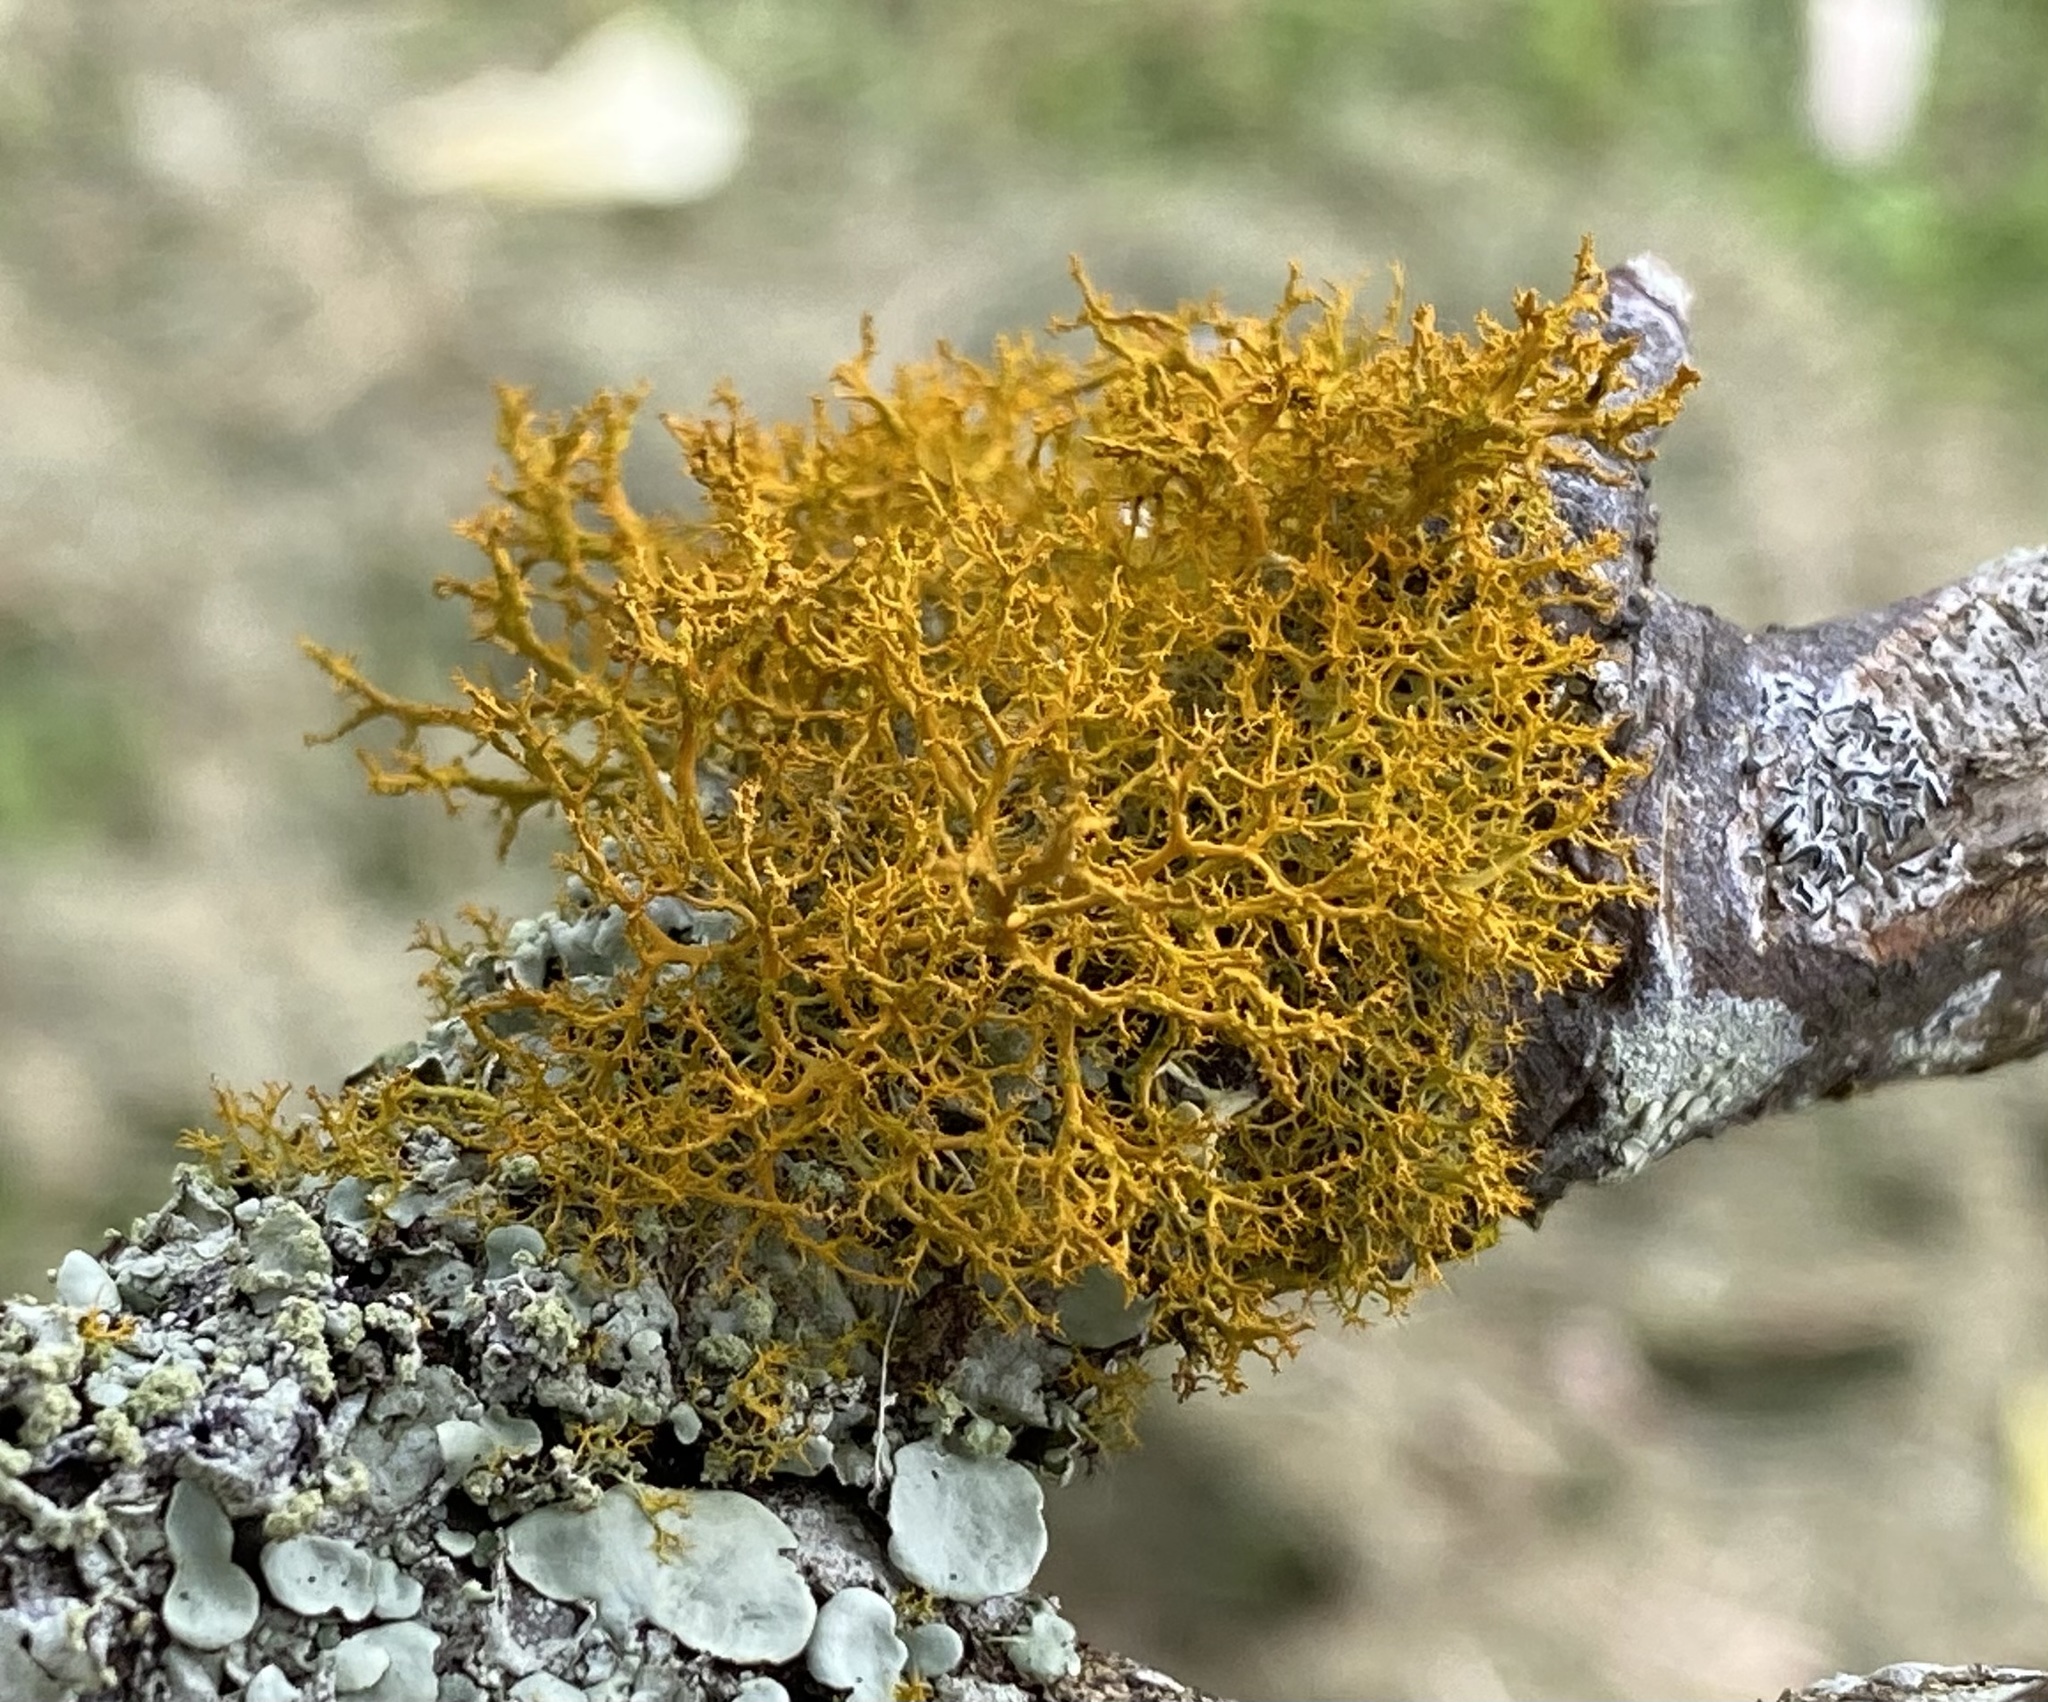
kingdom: Fungi
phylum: Ascomycota
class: Lecanoromycetes
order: Teloschistales
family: Teloschistaceae
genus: Teloschistes
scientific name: Teloschistes flavicans
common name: Golden hair-lichen
